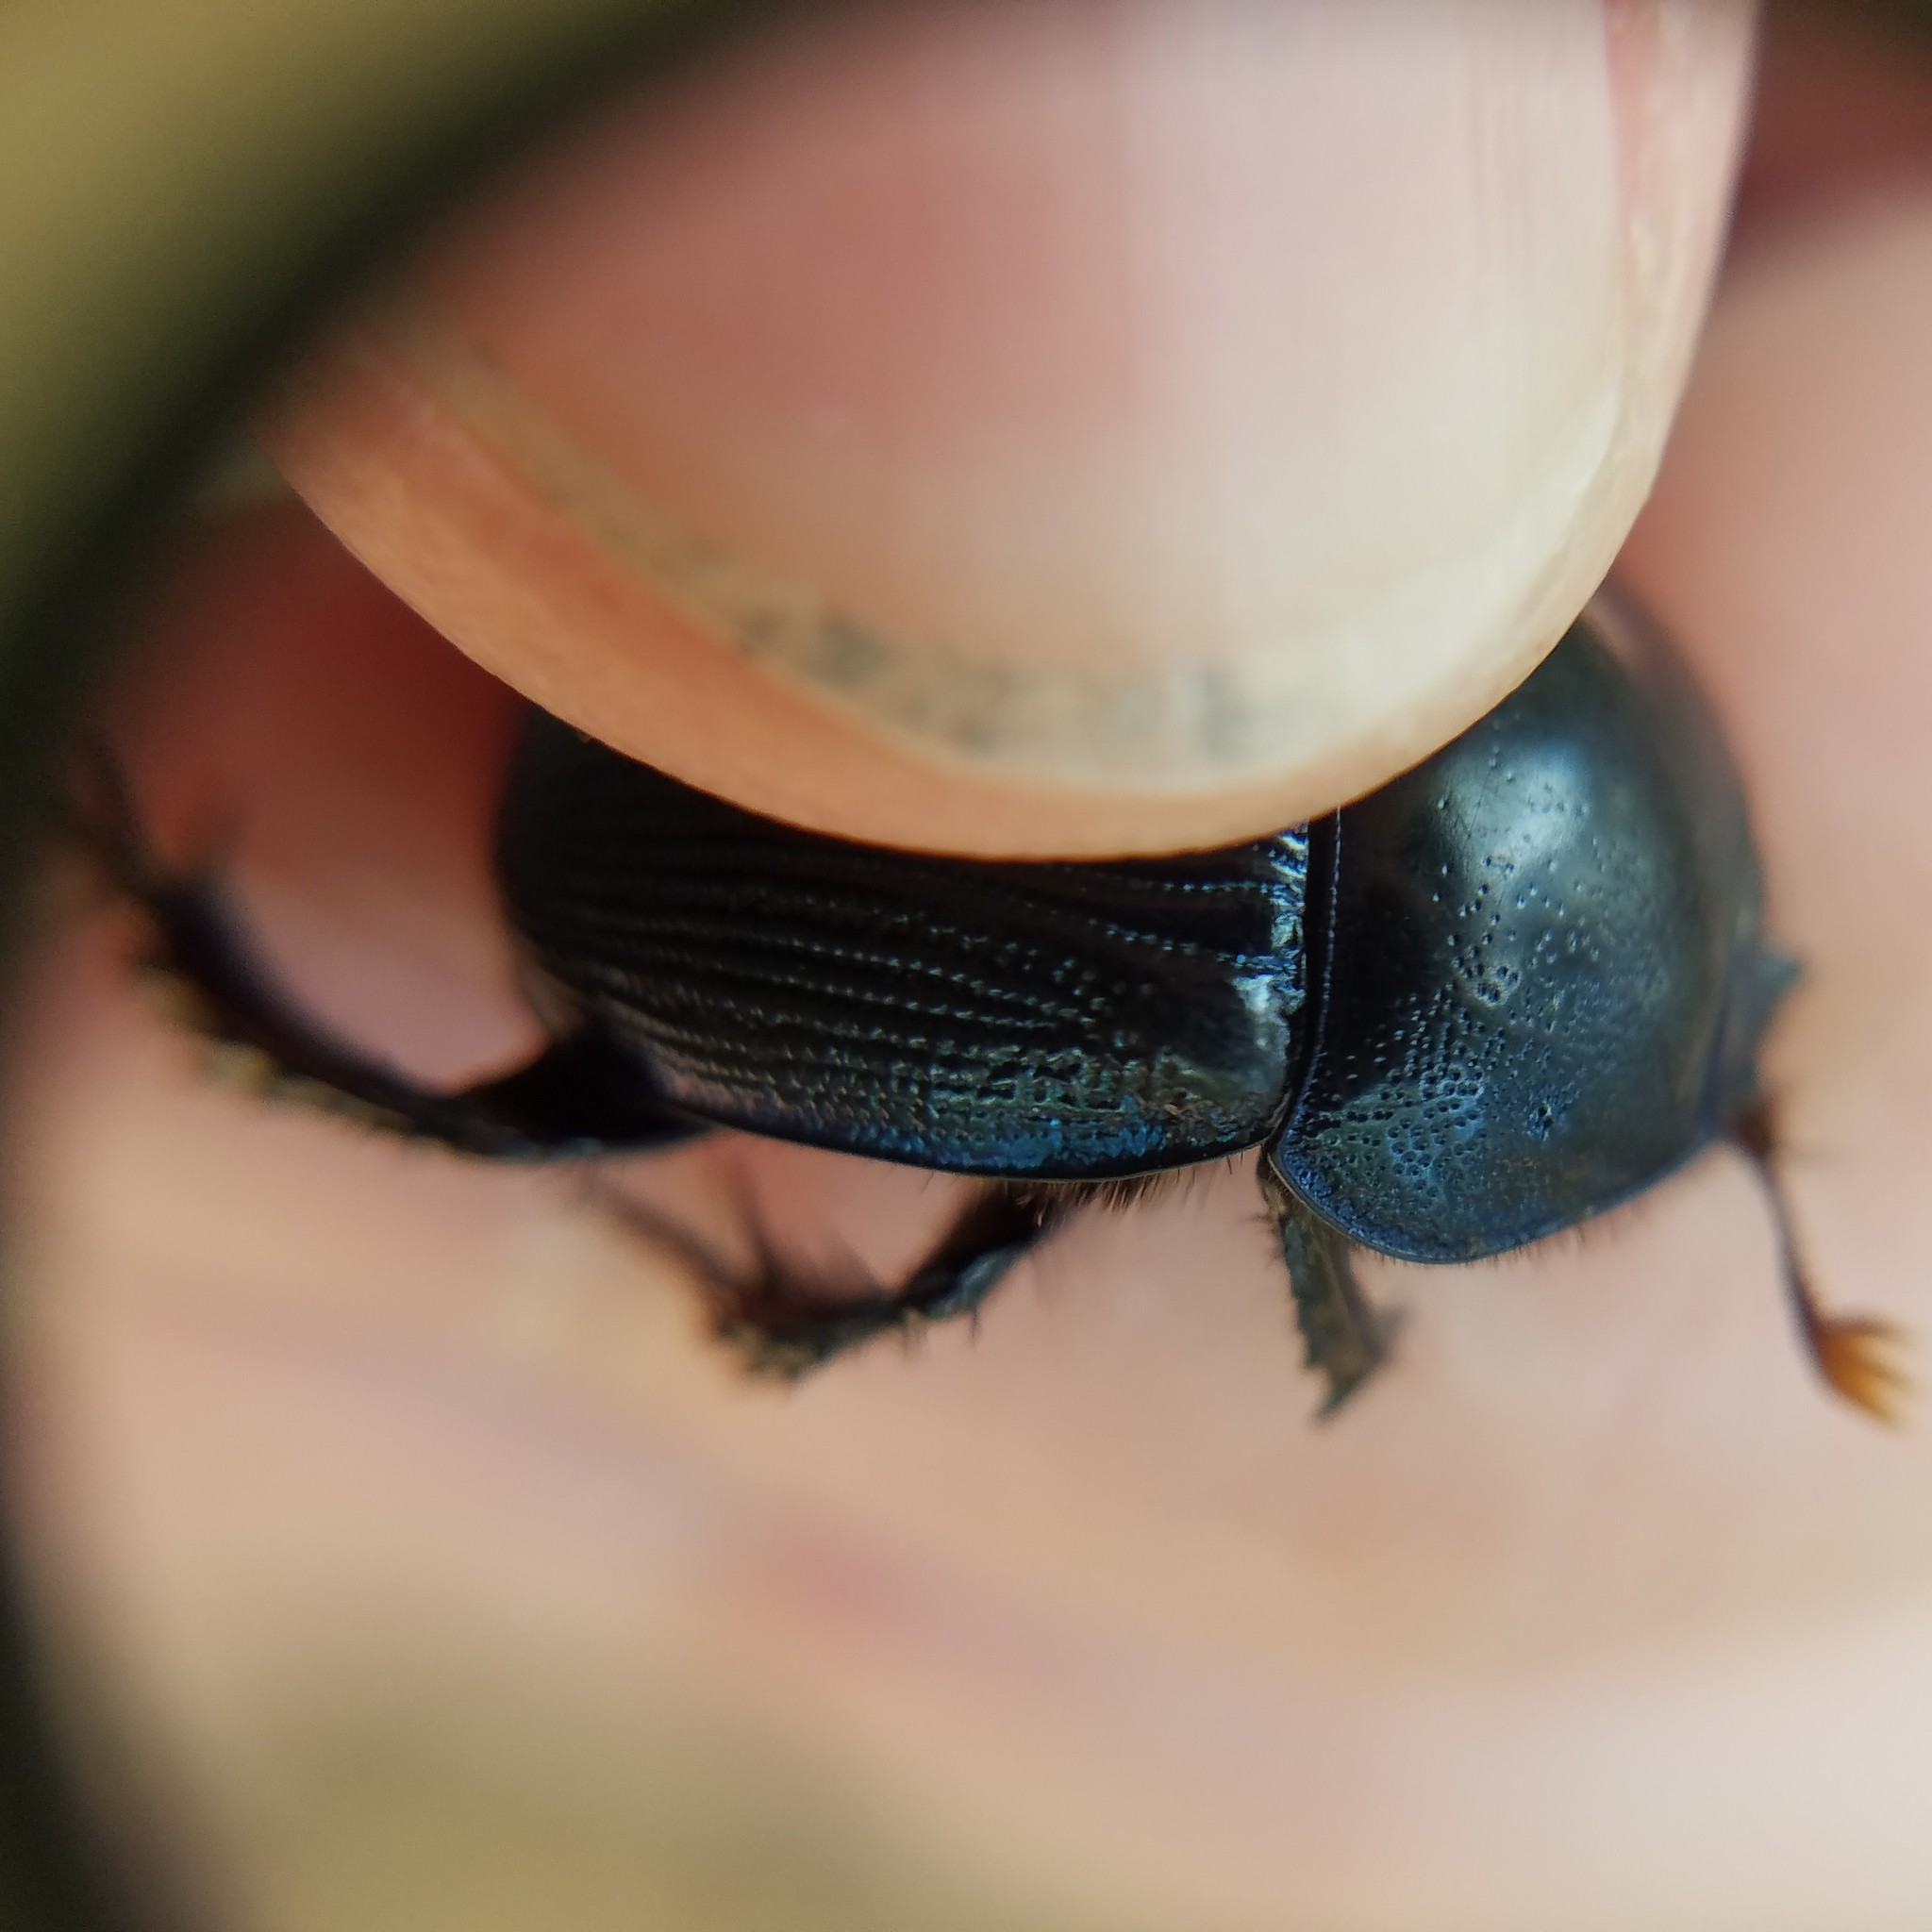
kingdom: Animalia
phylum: Arthropoda
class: Insecta
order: Coleoptera
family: Geotrupidae
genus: Geotrupes
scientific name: Geotrupes egeriei
